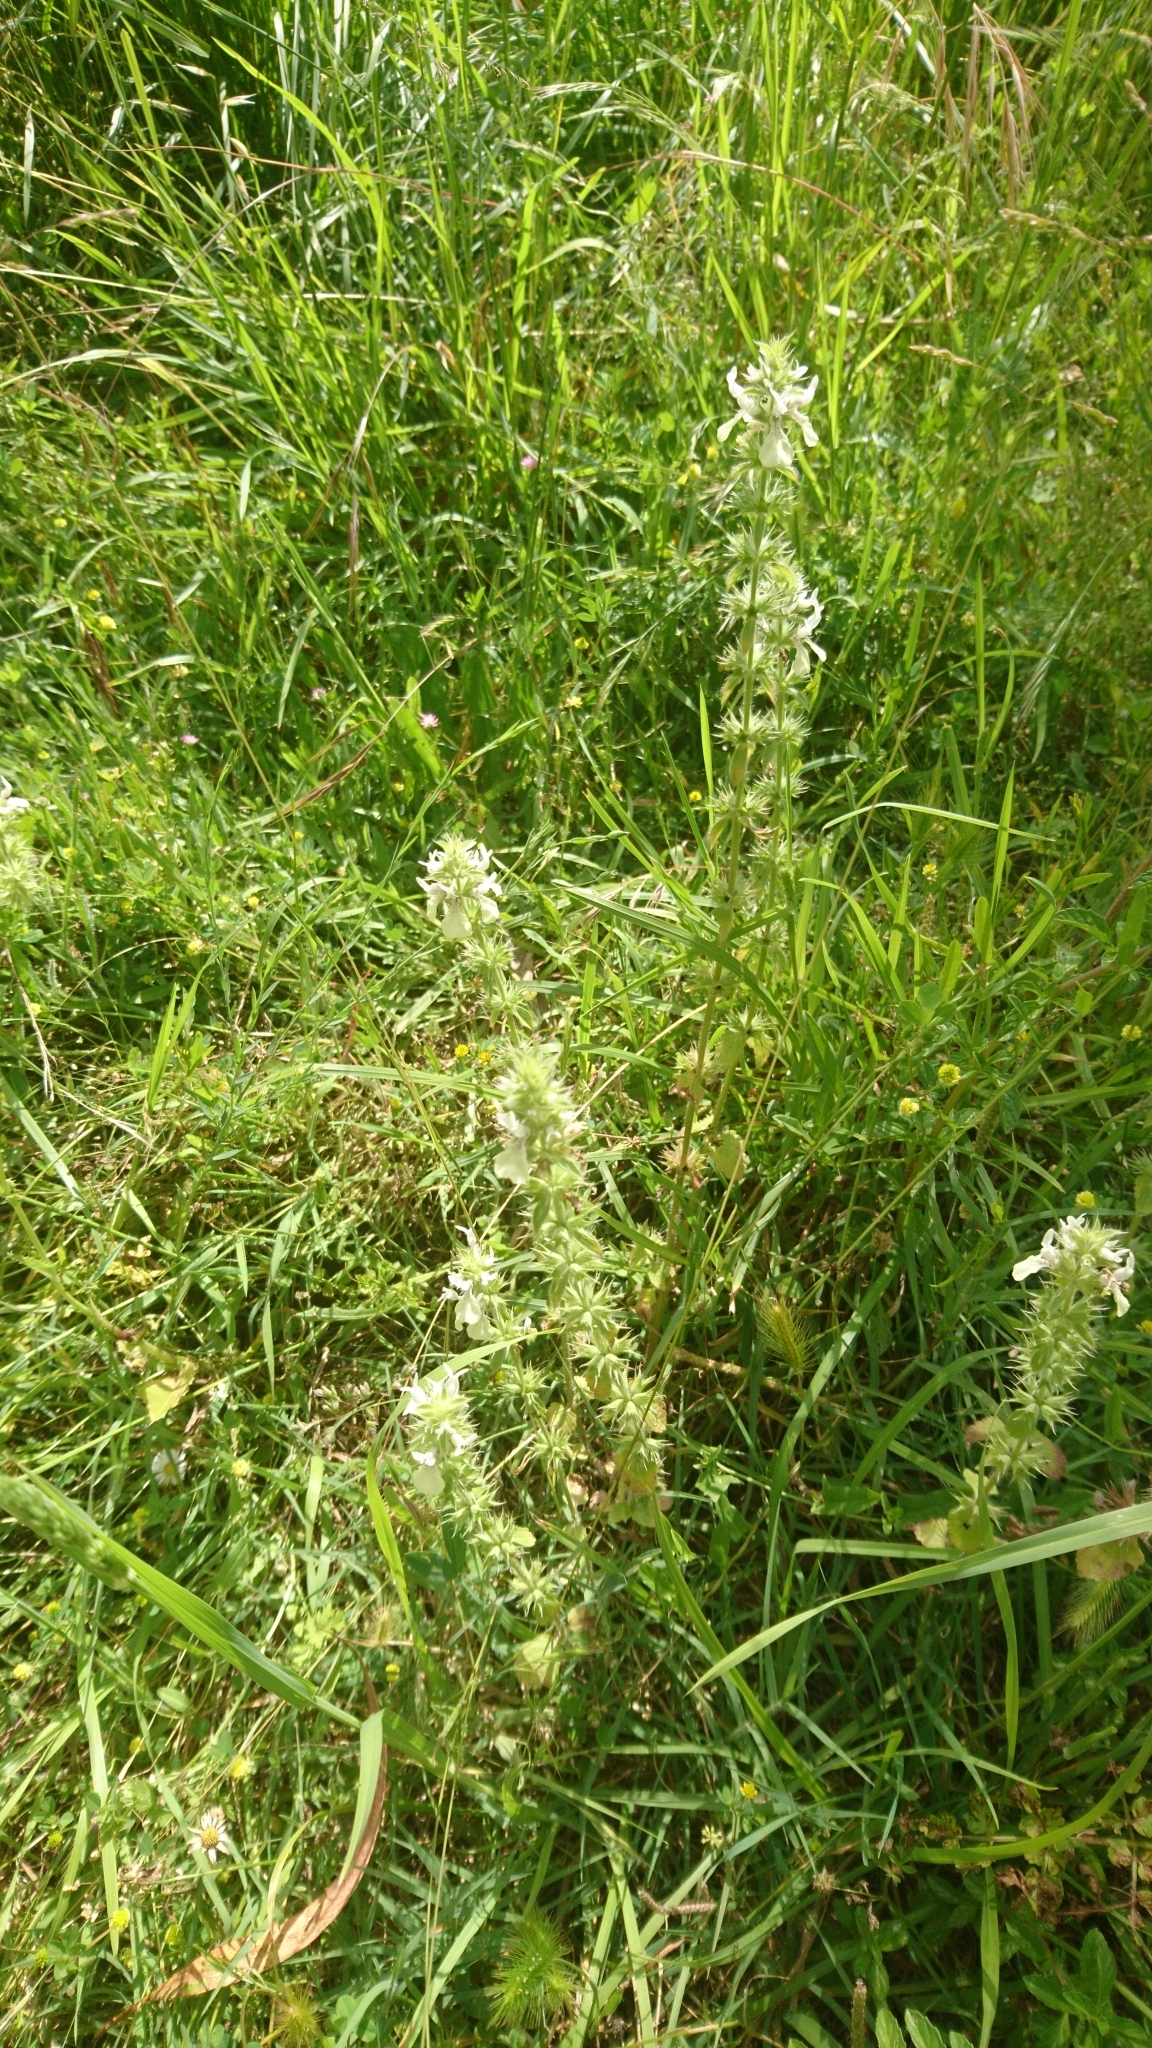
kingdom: Plantae
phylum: Tracheophyta
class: Magnoliopsida
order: Lamiales
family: Lamiaceae
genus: Stachys
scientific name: Stachys ocymastrum
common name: Italian hedgenettle
